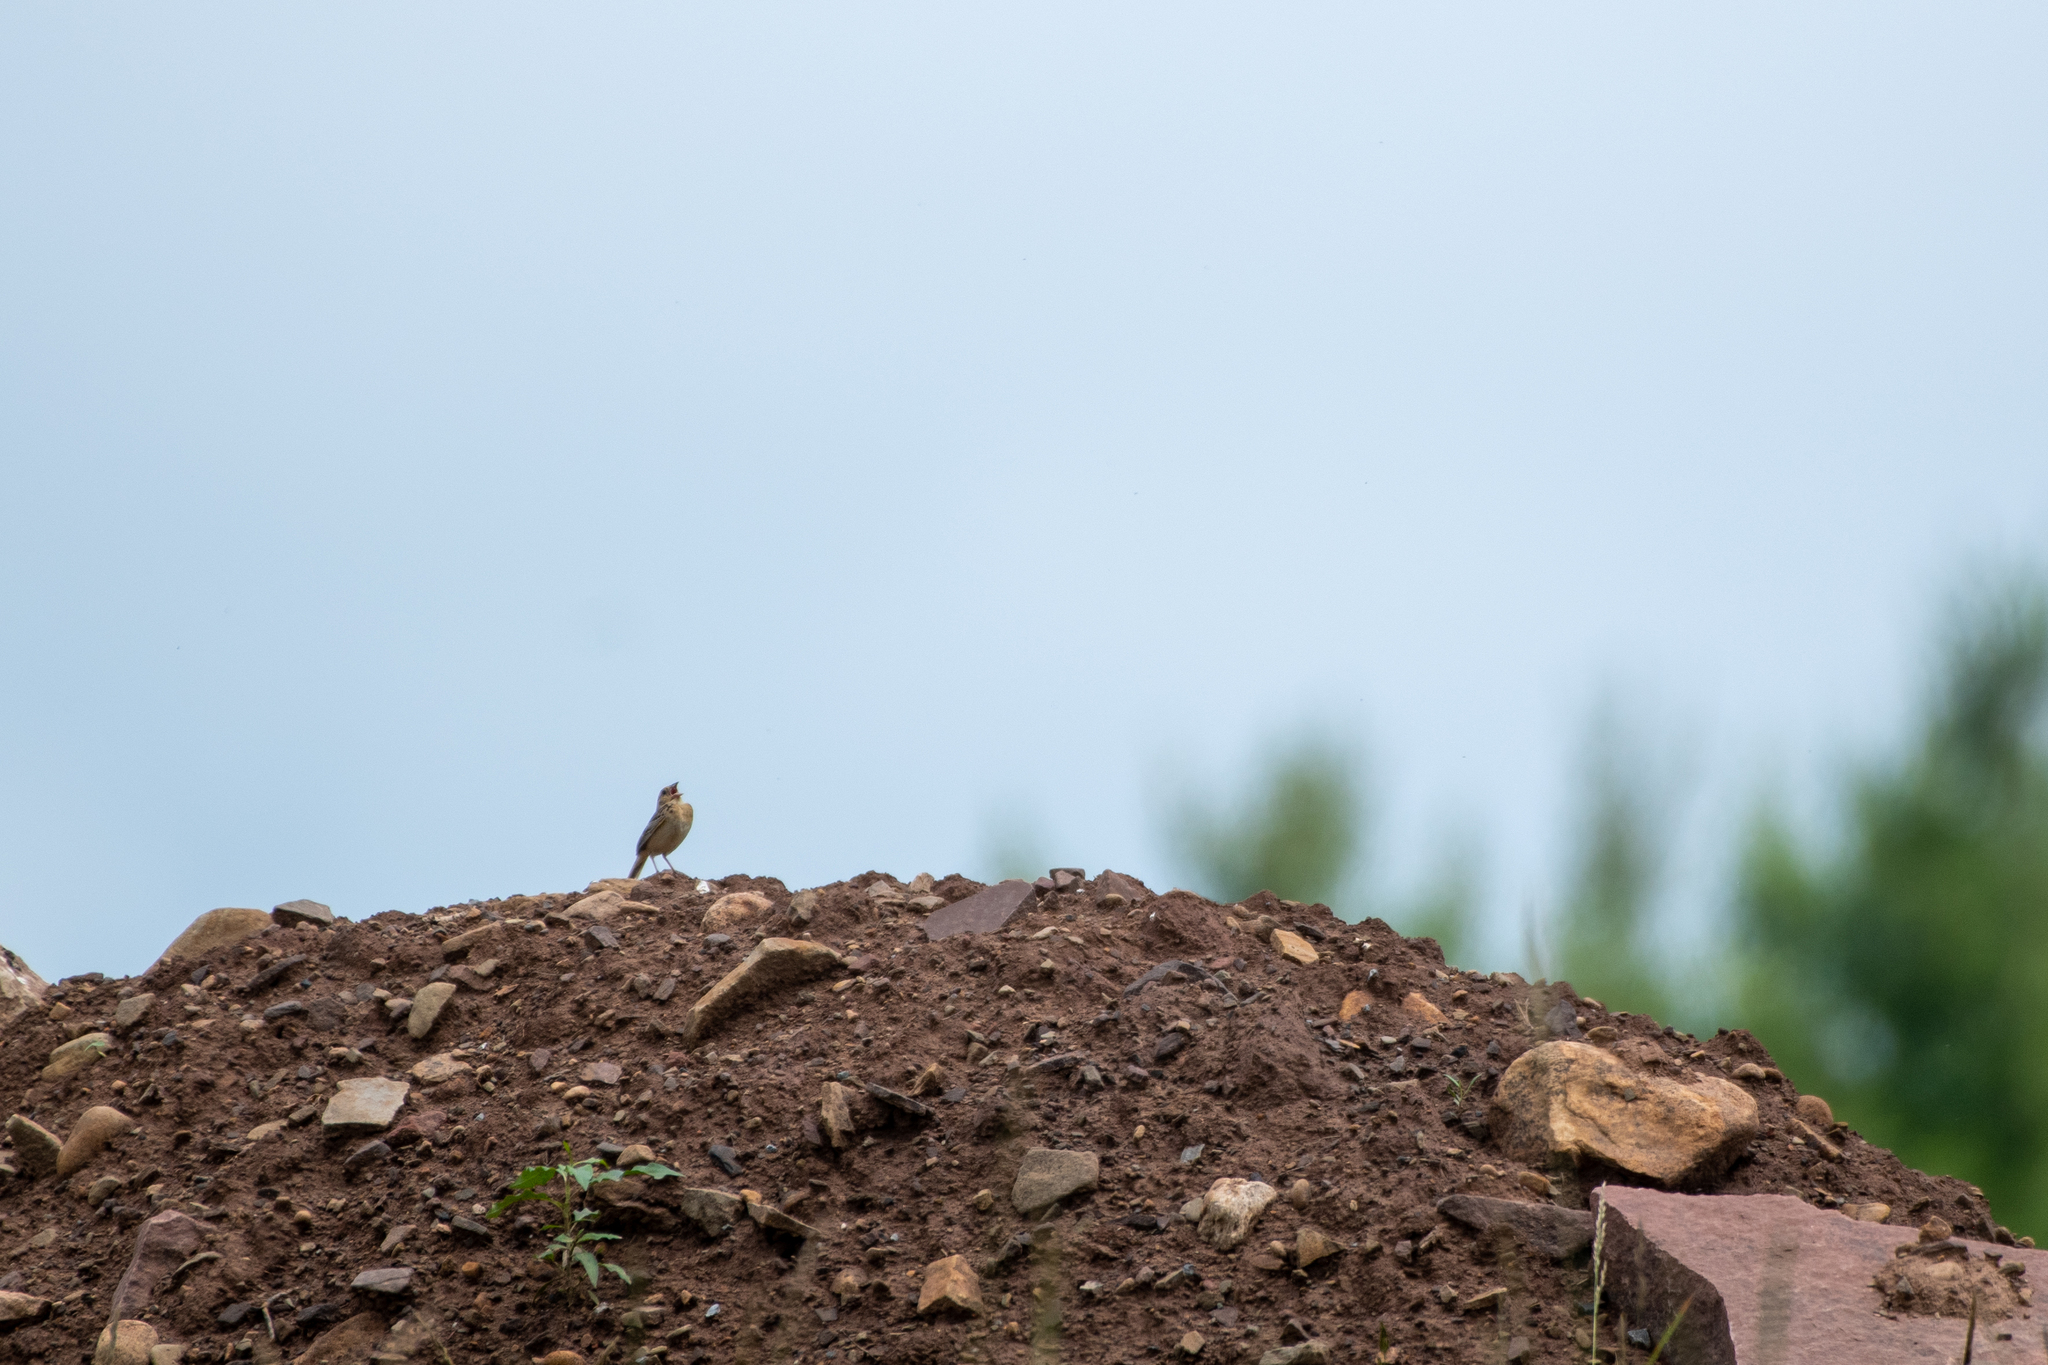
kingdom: Animalia
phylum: Chordata
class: Aves
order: Passeriformes
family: Passerellidae
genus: Ammodramus
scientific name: Ammodramus savannarum
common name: Grasshopper sparrow
